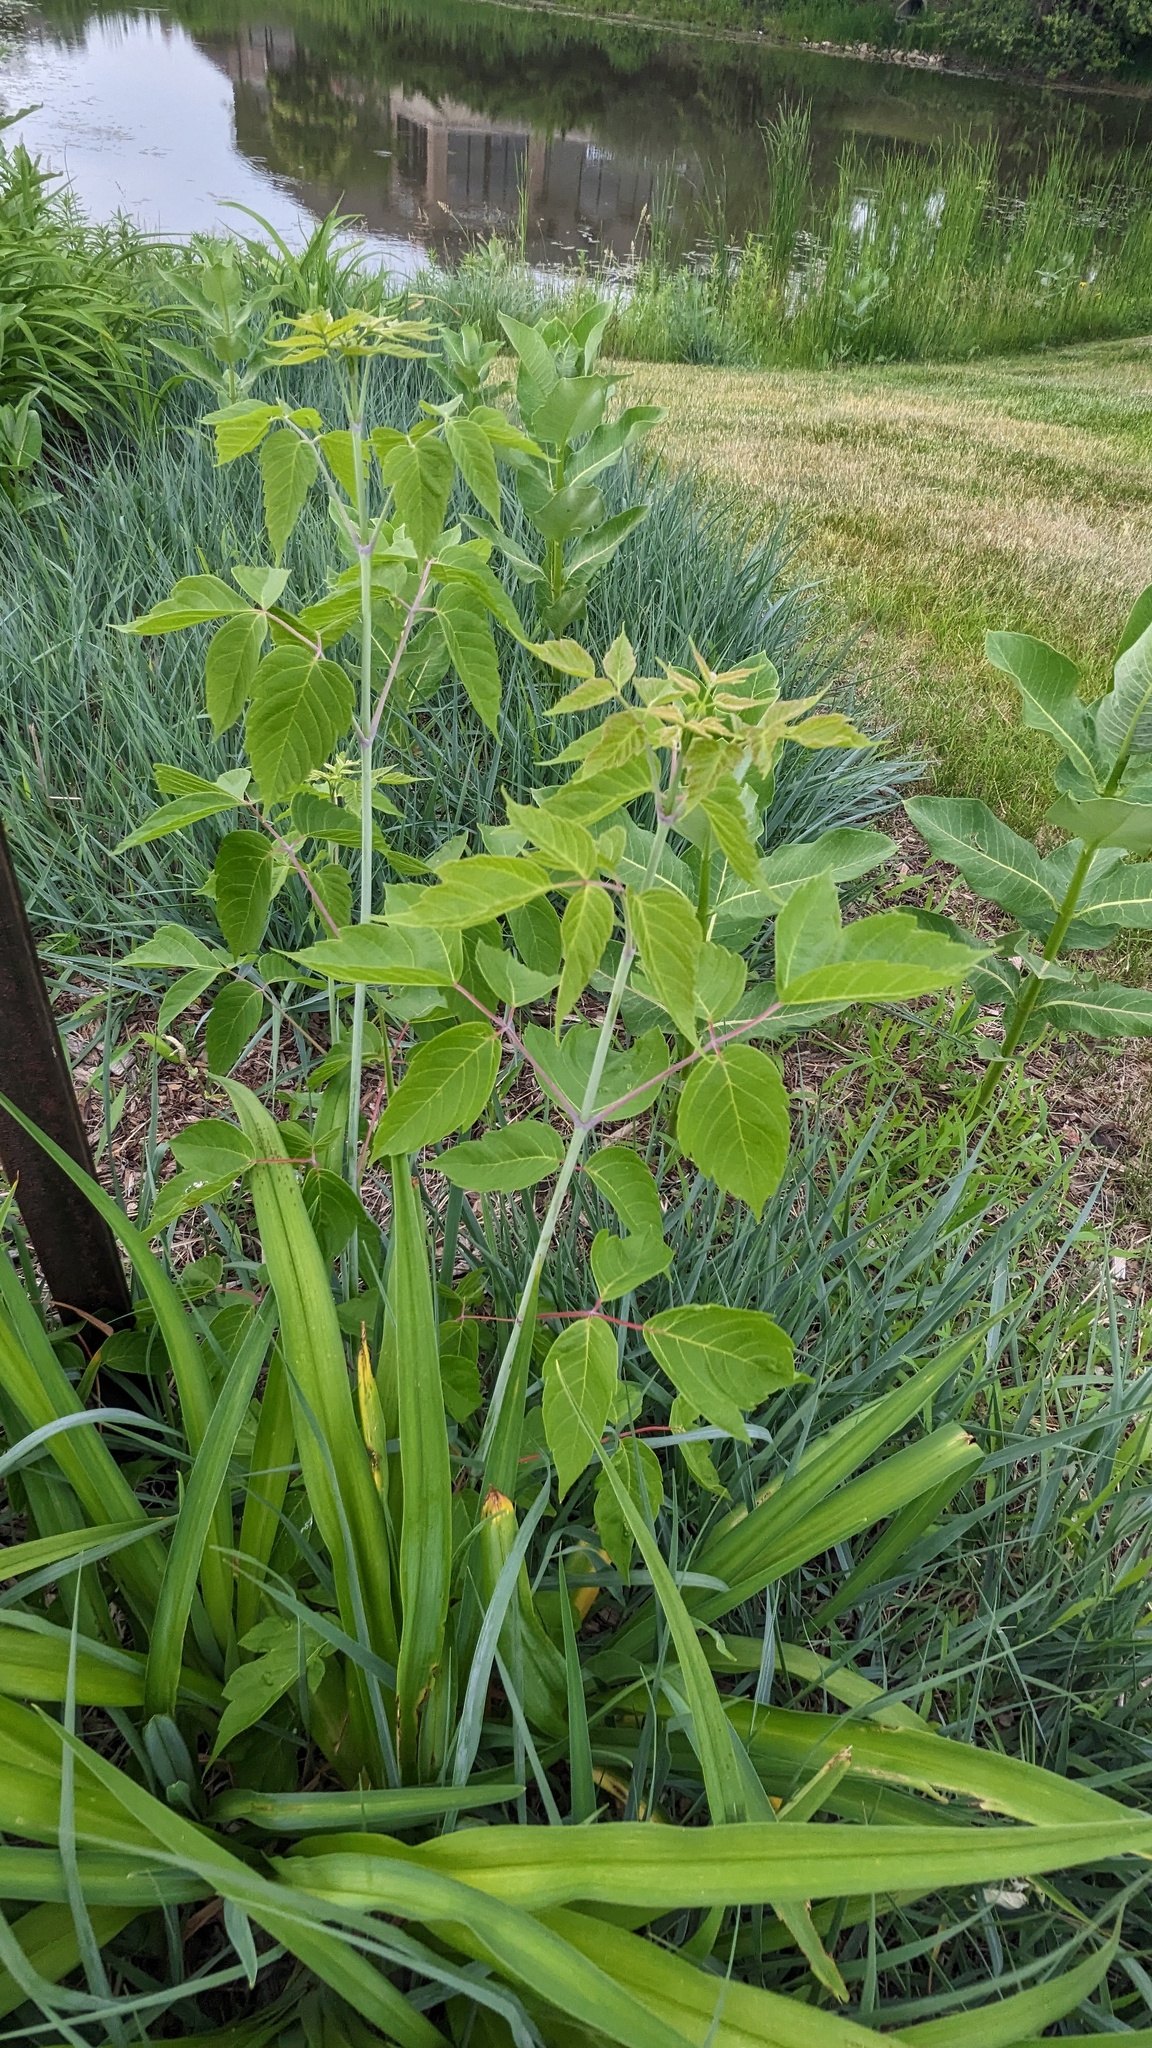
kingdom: Plantae
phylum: Tracheophyta
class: Magnoliopsida
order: Sapindales
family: Sapindaceae
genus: Acer
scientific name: Acer negundo
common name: Ashleaf maple
